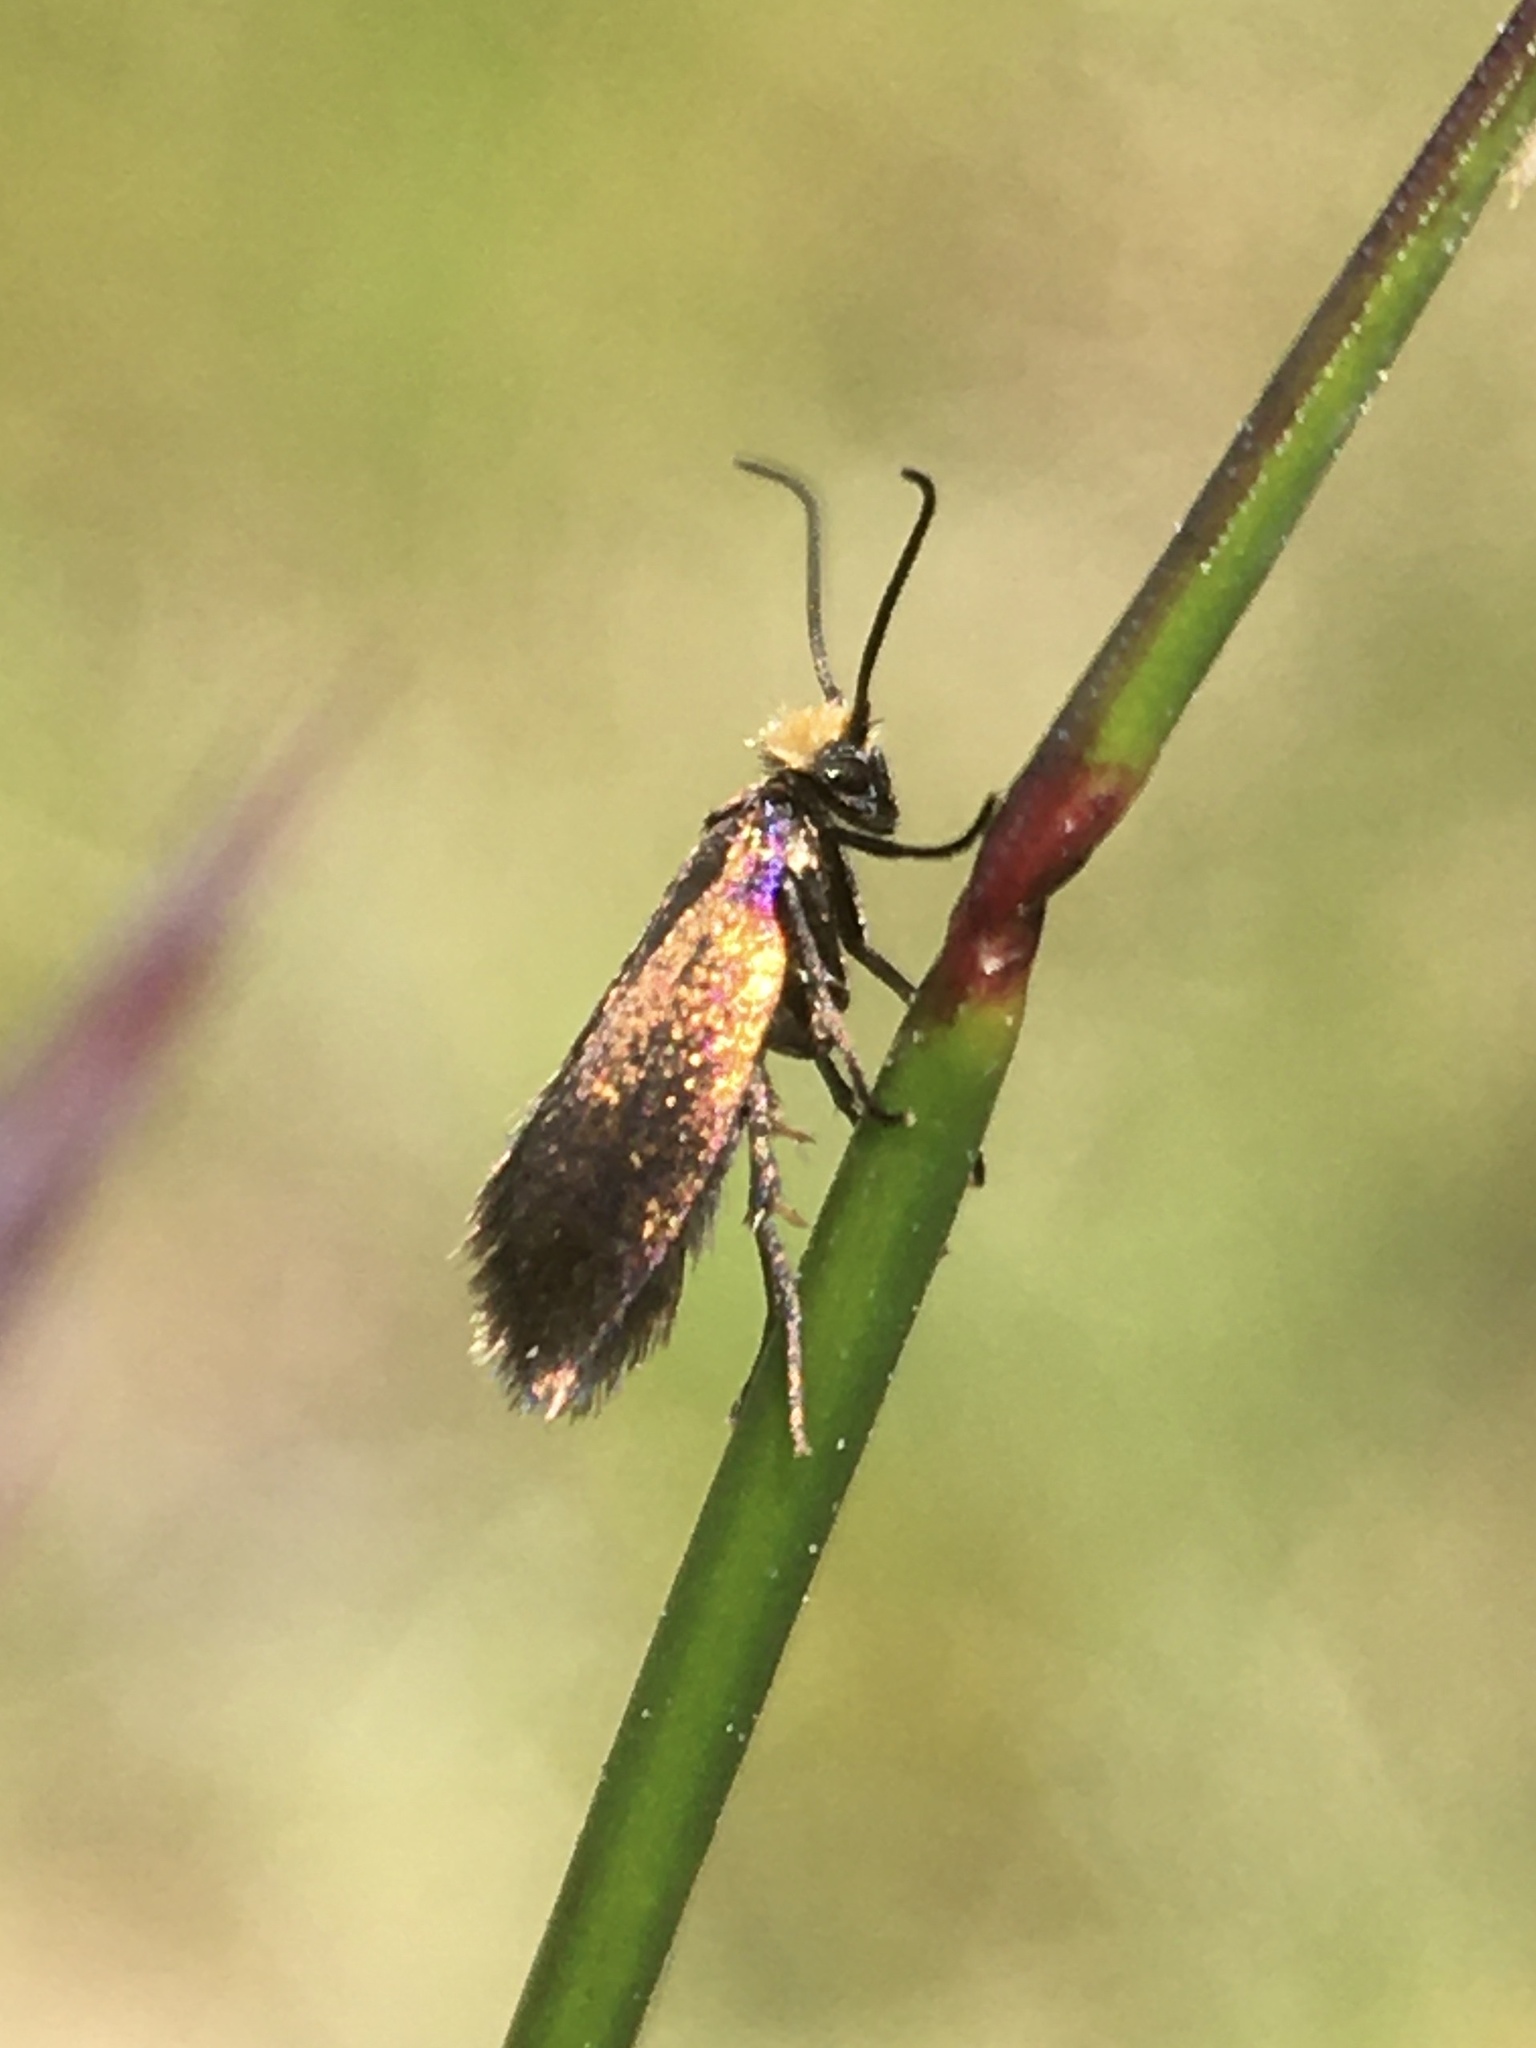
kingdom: Animalia
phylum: Arthropoda
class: Insecta
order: Lepidoptera
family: Micropterigidae
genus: Micropterix
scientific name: Micropterix calthella
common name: Plain gold
